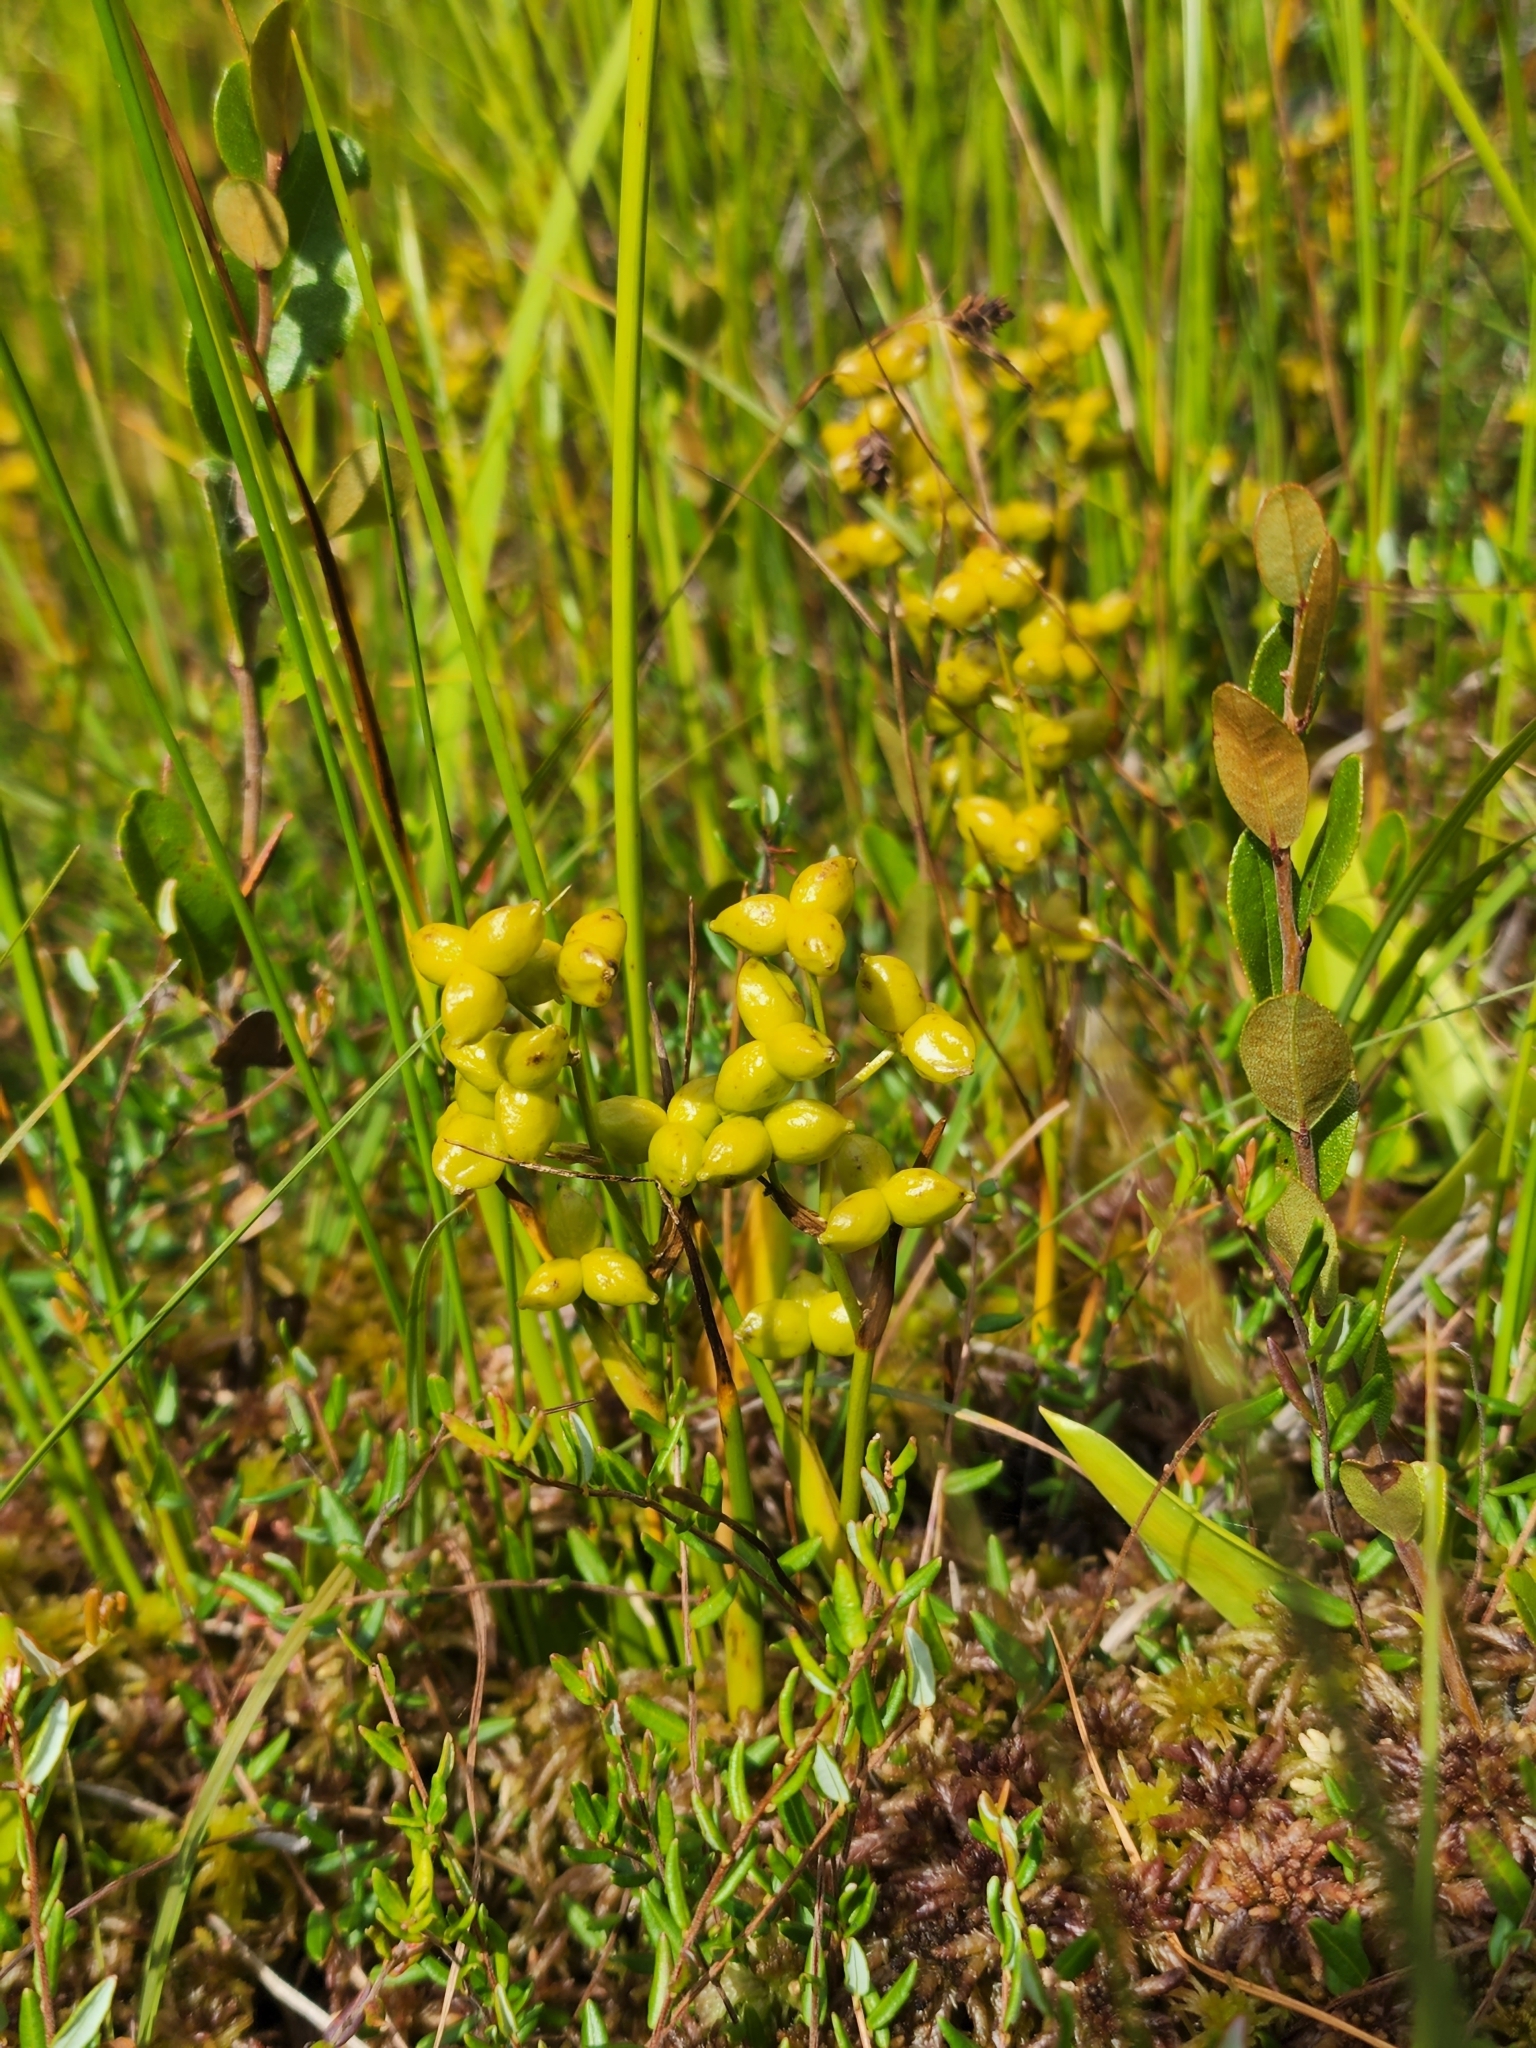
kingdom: Plantae
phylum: Tracheophyta
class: Liliopsida
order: Alismatales
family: Scheuchzeriaceae
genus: Scheuchzeria
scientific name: Scheuchzeria palustris
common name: Rannoch-rush
